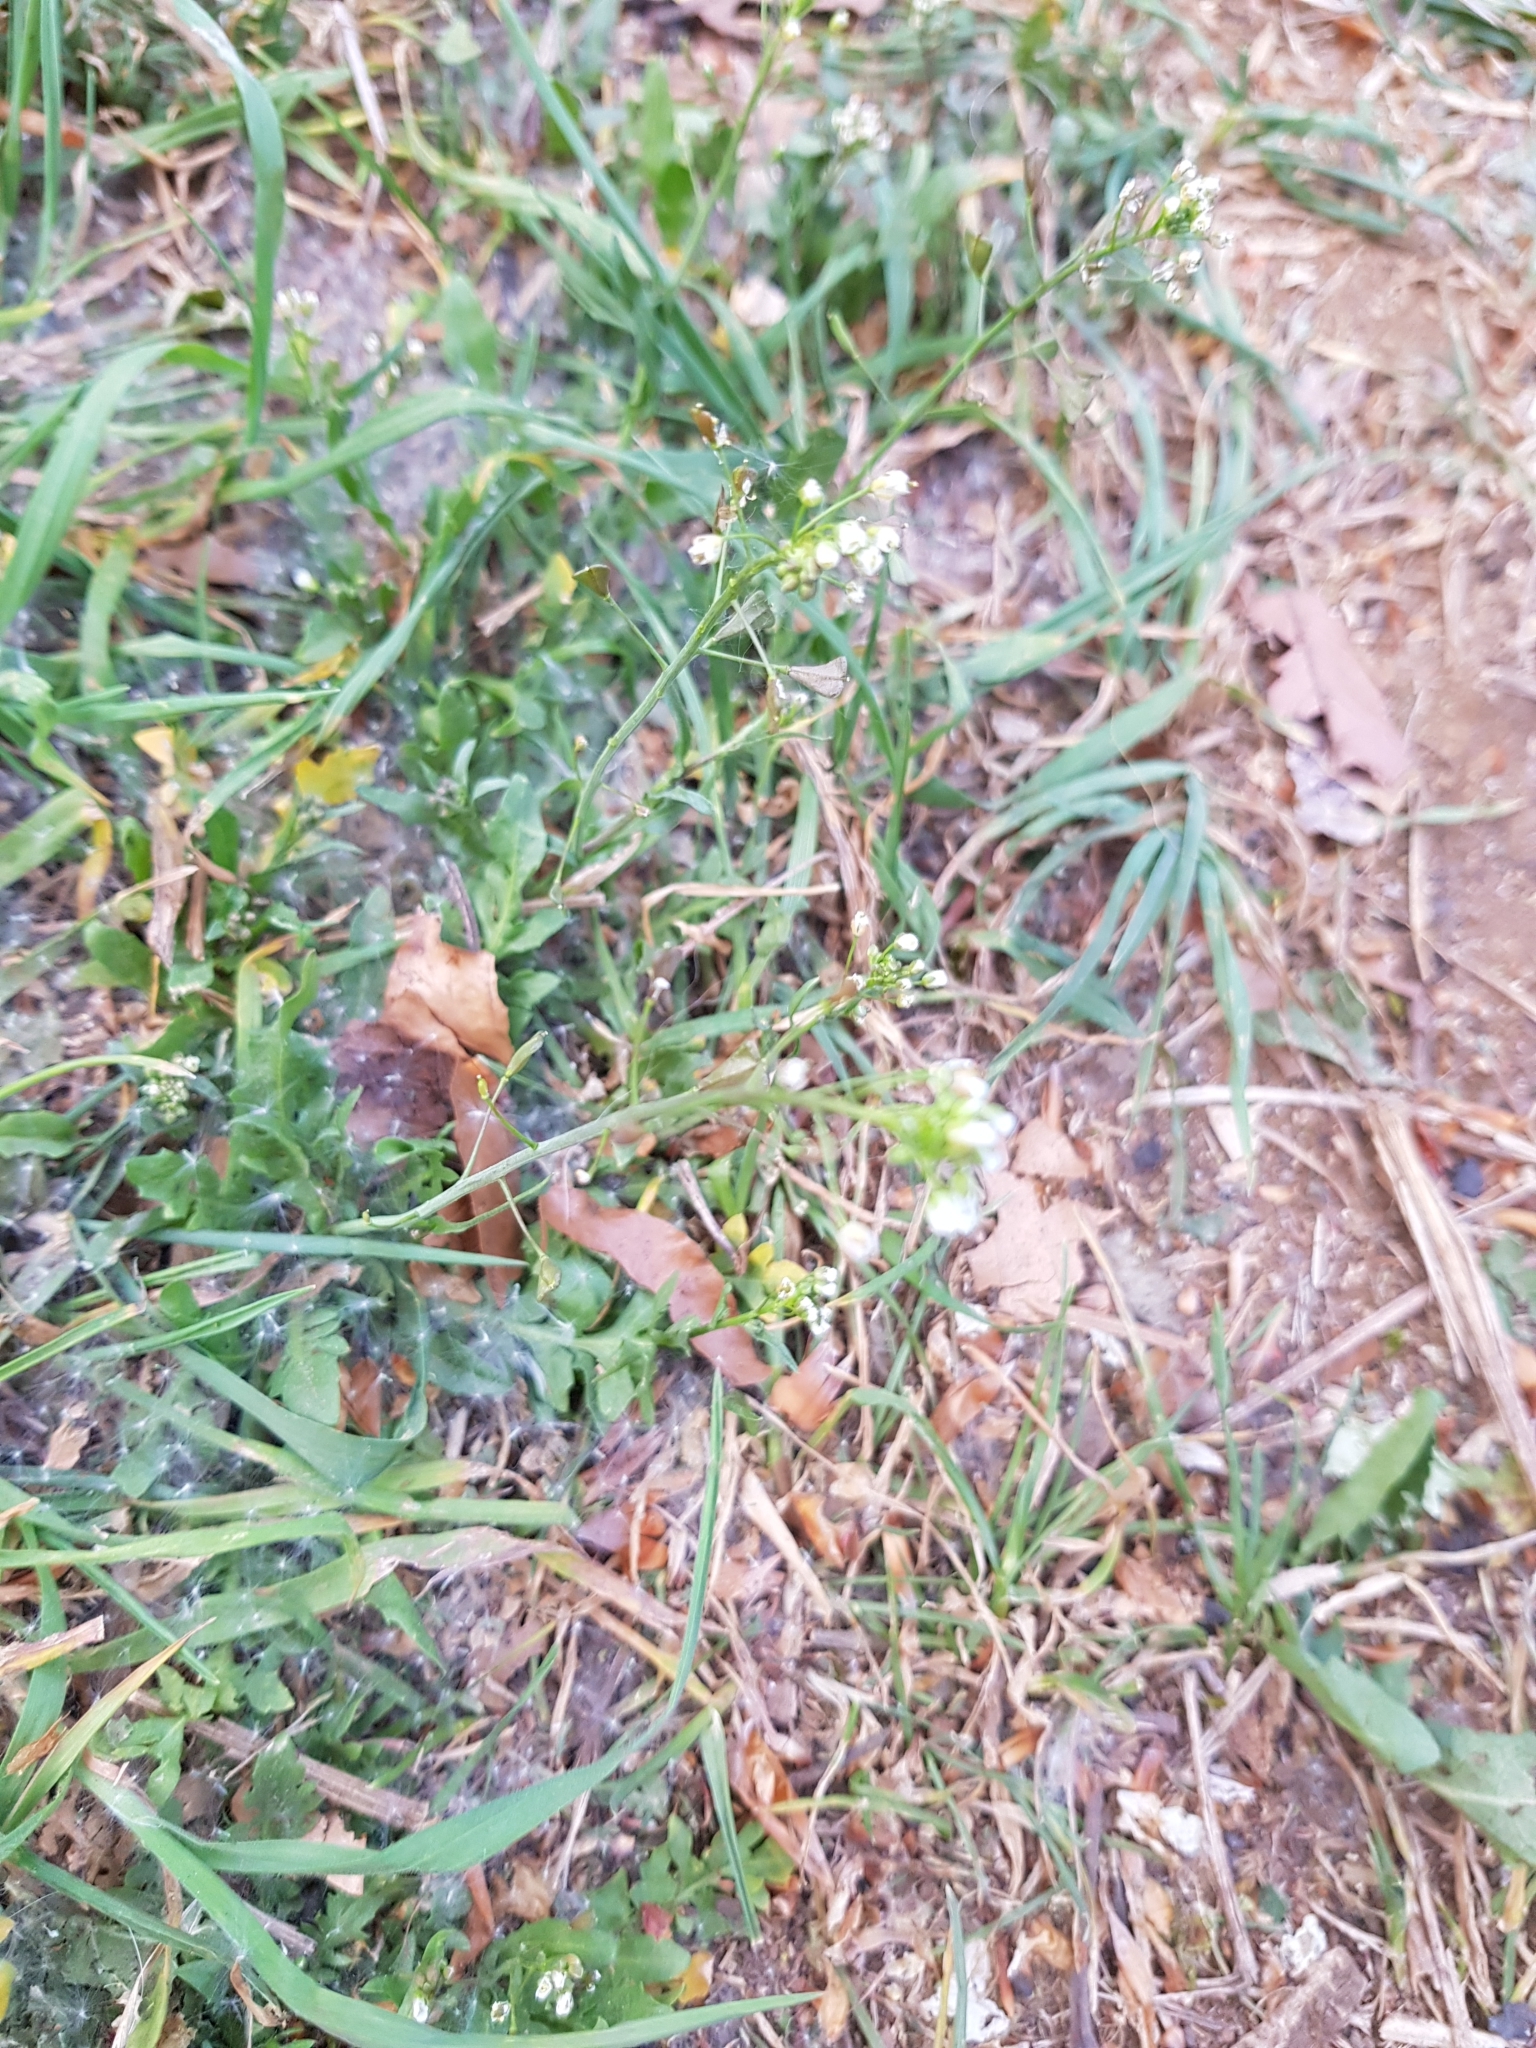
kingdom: Plantae
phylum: Tracheophyta
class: Magnoliopsida
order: Brassicales
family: Brassicaceae
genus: Capsella
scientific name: Capsella bursa-pastoris
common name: Shepherd's purse
